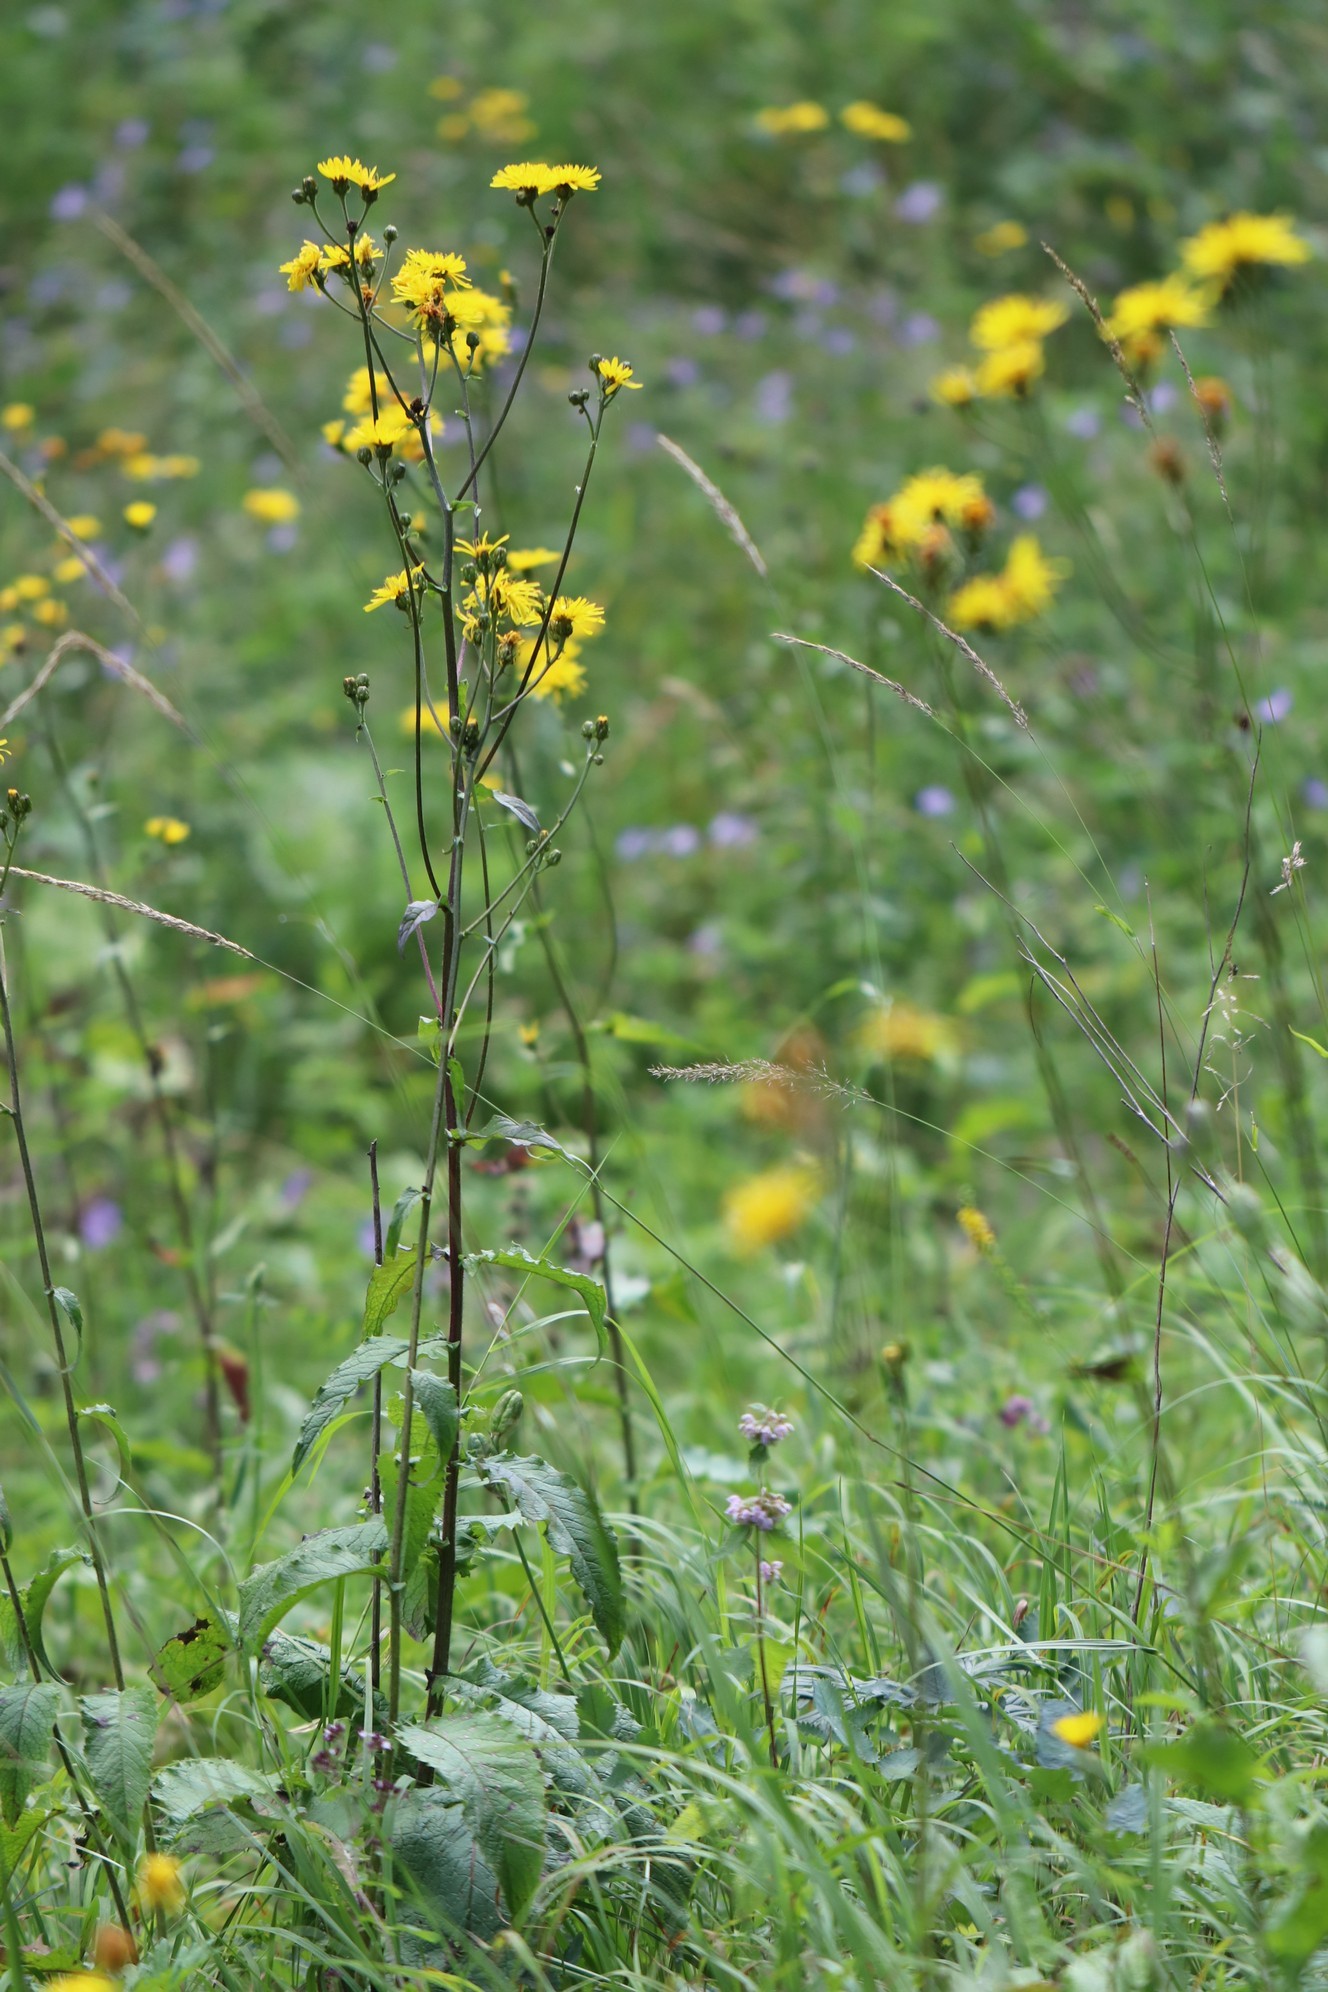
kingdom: Plantae
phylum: Tracheophyta
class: Magnoliopsida
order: Asterales
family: Asteraceae
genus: Crepis
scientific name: Crepis sibirica
